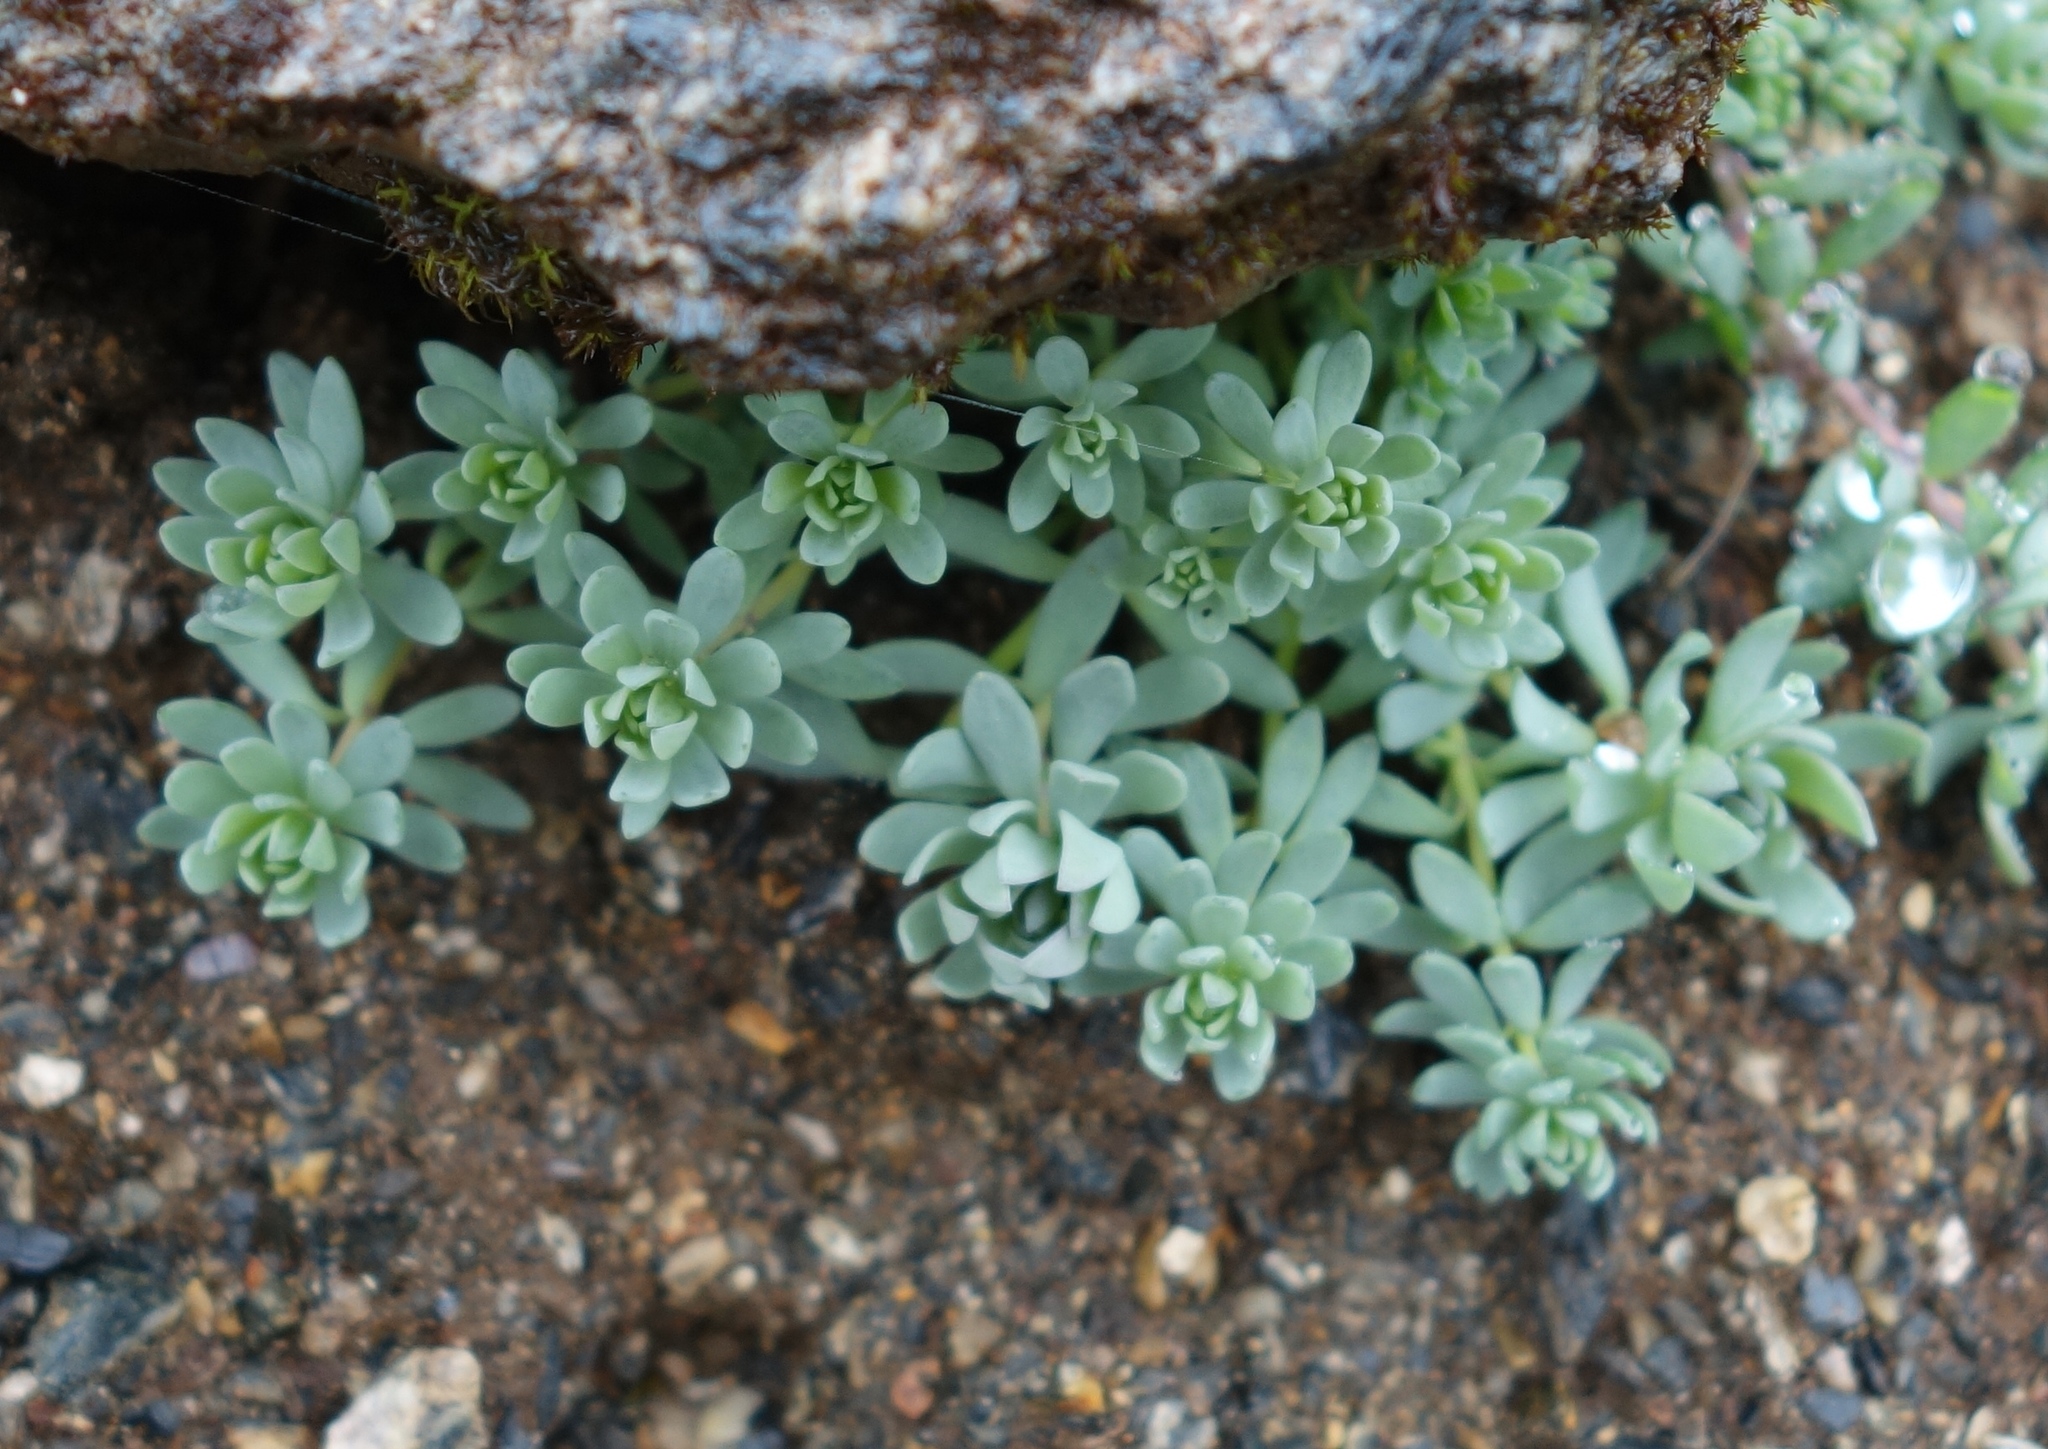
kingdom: Plantae
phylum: Tracheophyta
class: Magnoliopsida
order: Lamiales
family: Plantaginaceae
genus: Linaria
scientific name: Linaria alpina
